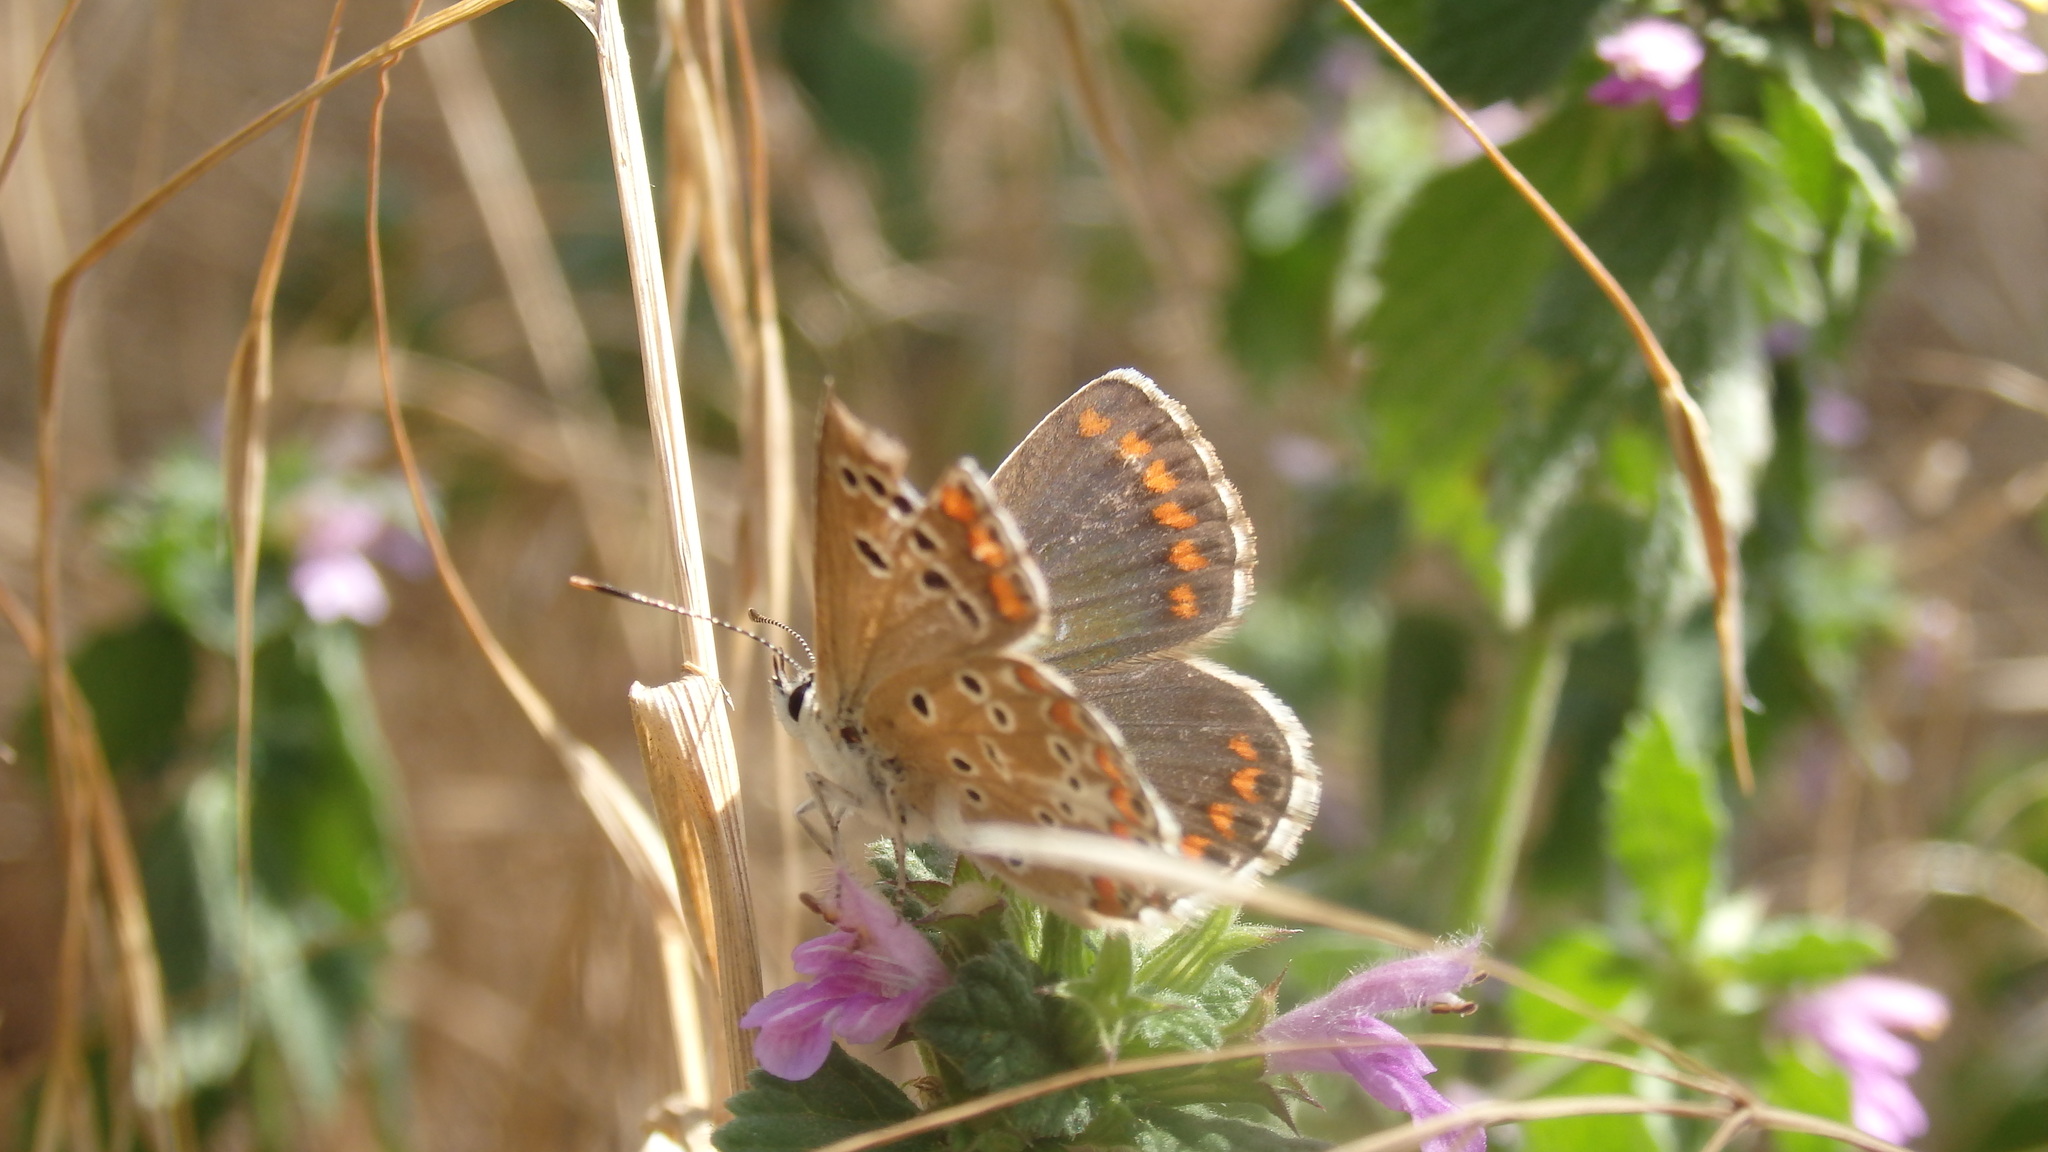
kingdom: Animalia
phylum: Arthropoda
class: Insecta
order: Lepidoptera
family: Lycaenidae
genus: Aricia
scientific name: Aricia agestis
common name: Brown argus
